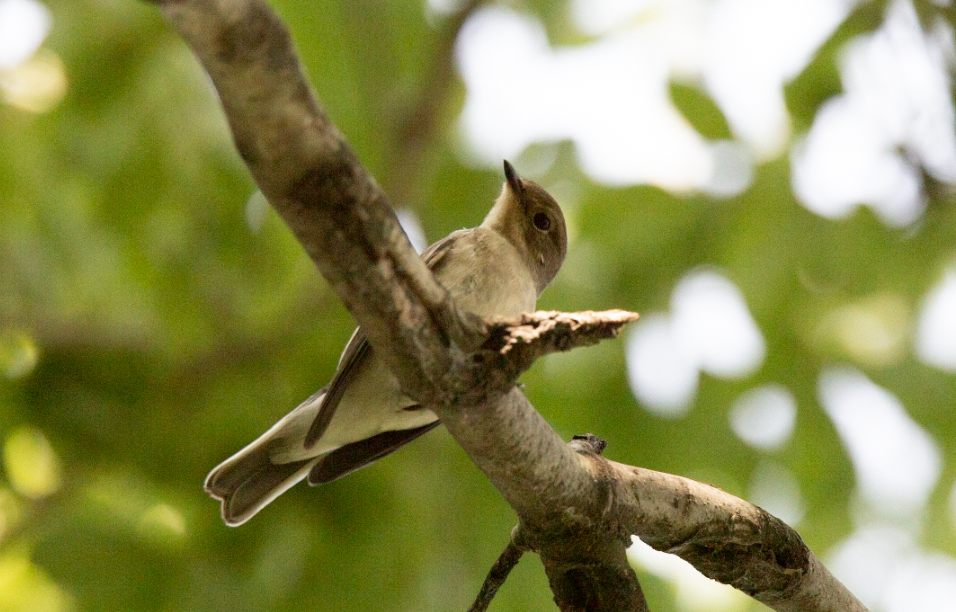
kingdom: Animalia
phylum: Chordata
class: Aves
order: Passeriformes
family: Muscicapidae
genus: Ficedula
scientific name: Ficedula hypoleuca
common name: European pied flycatcher
